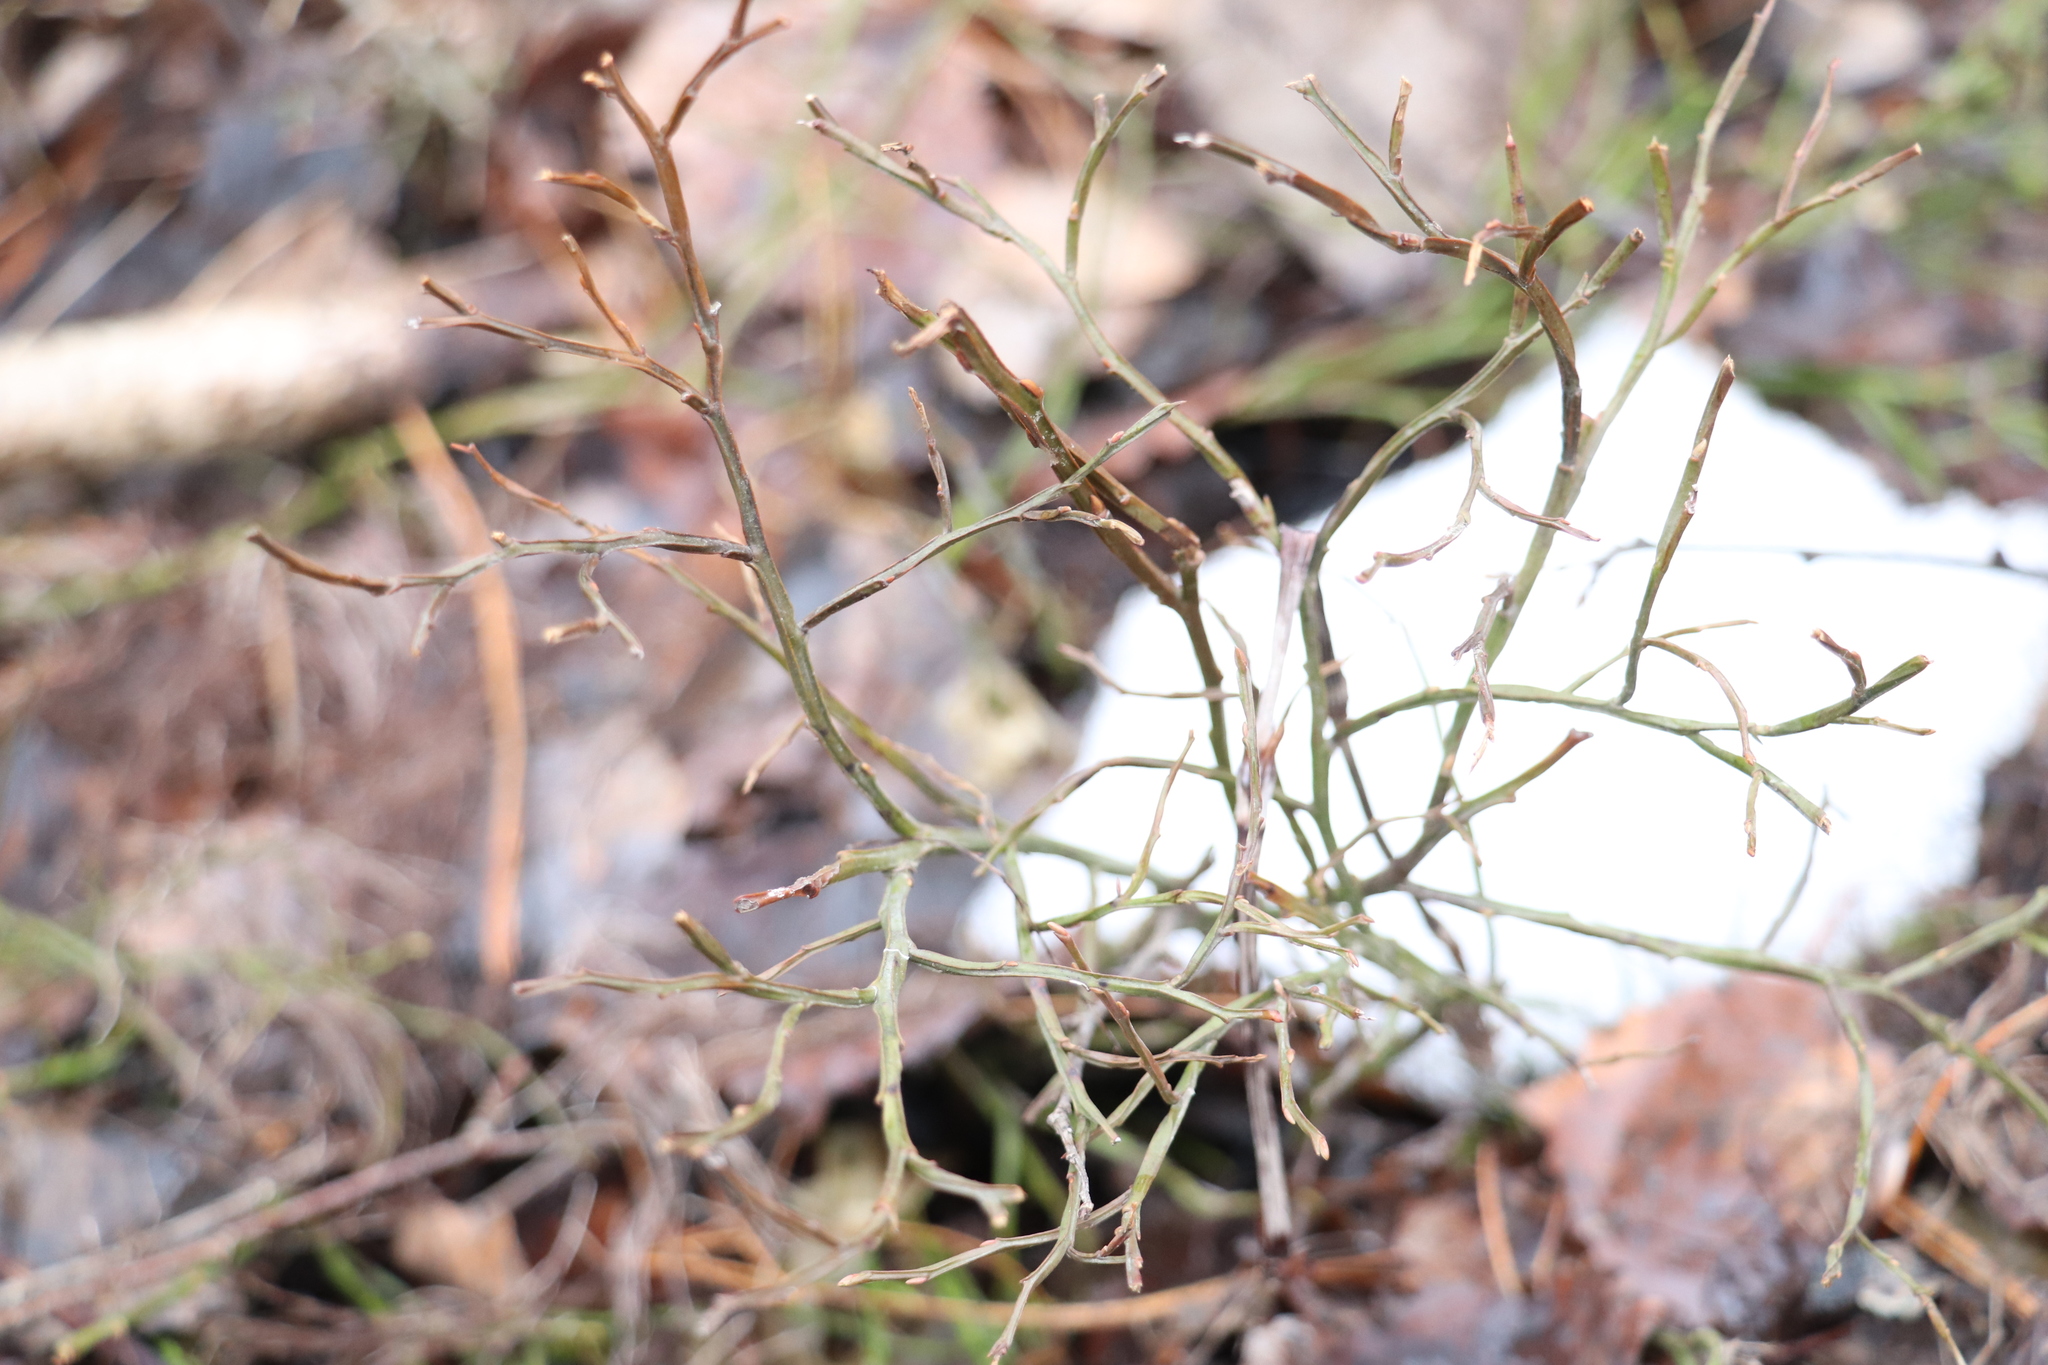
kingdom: Plantae
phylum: Tracheophyta
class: Magnoliopsida
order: Ericales
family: Ericaceae
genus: Vaccinium
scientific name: Vaccinium myrtillus
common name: Bilberry
